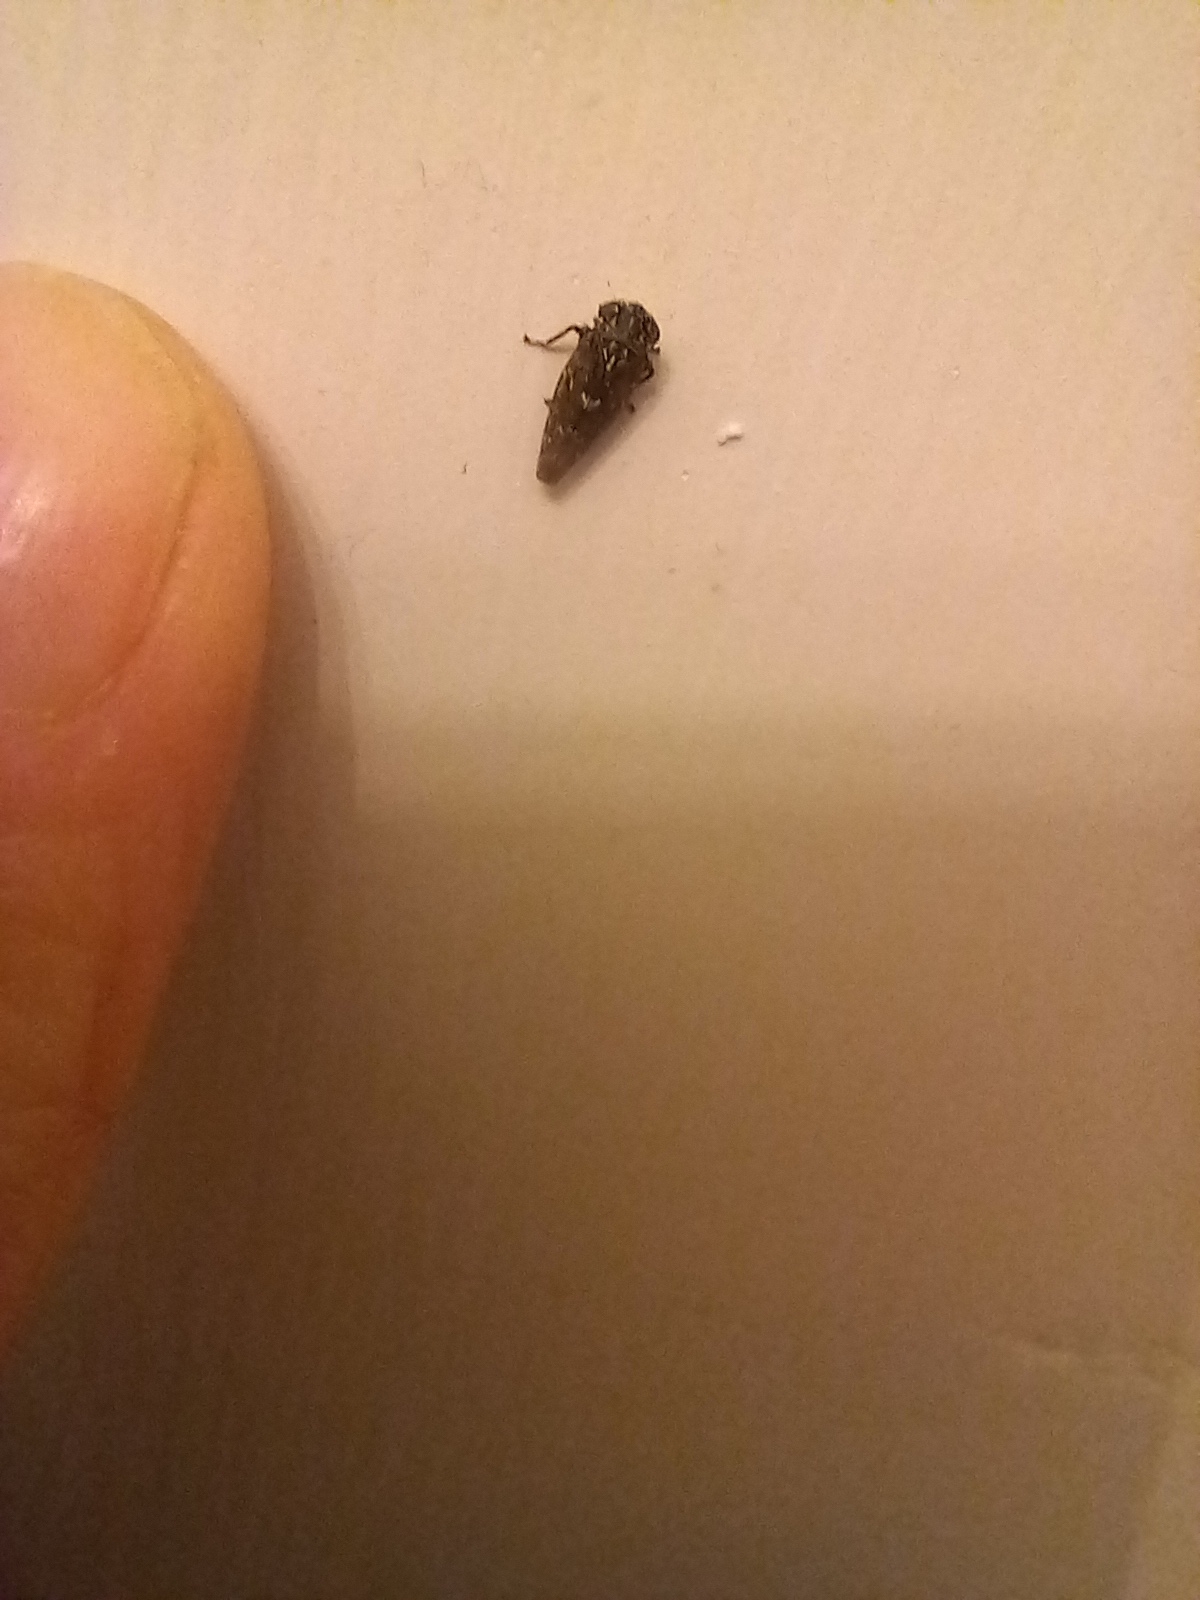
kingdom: Animalia
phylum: Arthropoda
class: Insecta
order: Hemiptera
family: Cicadellidae
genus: Acericerus
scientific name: Acericerus heydenii
